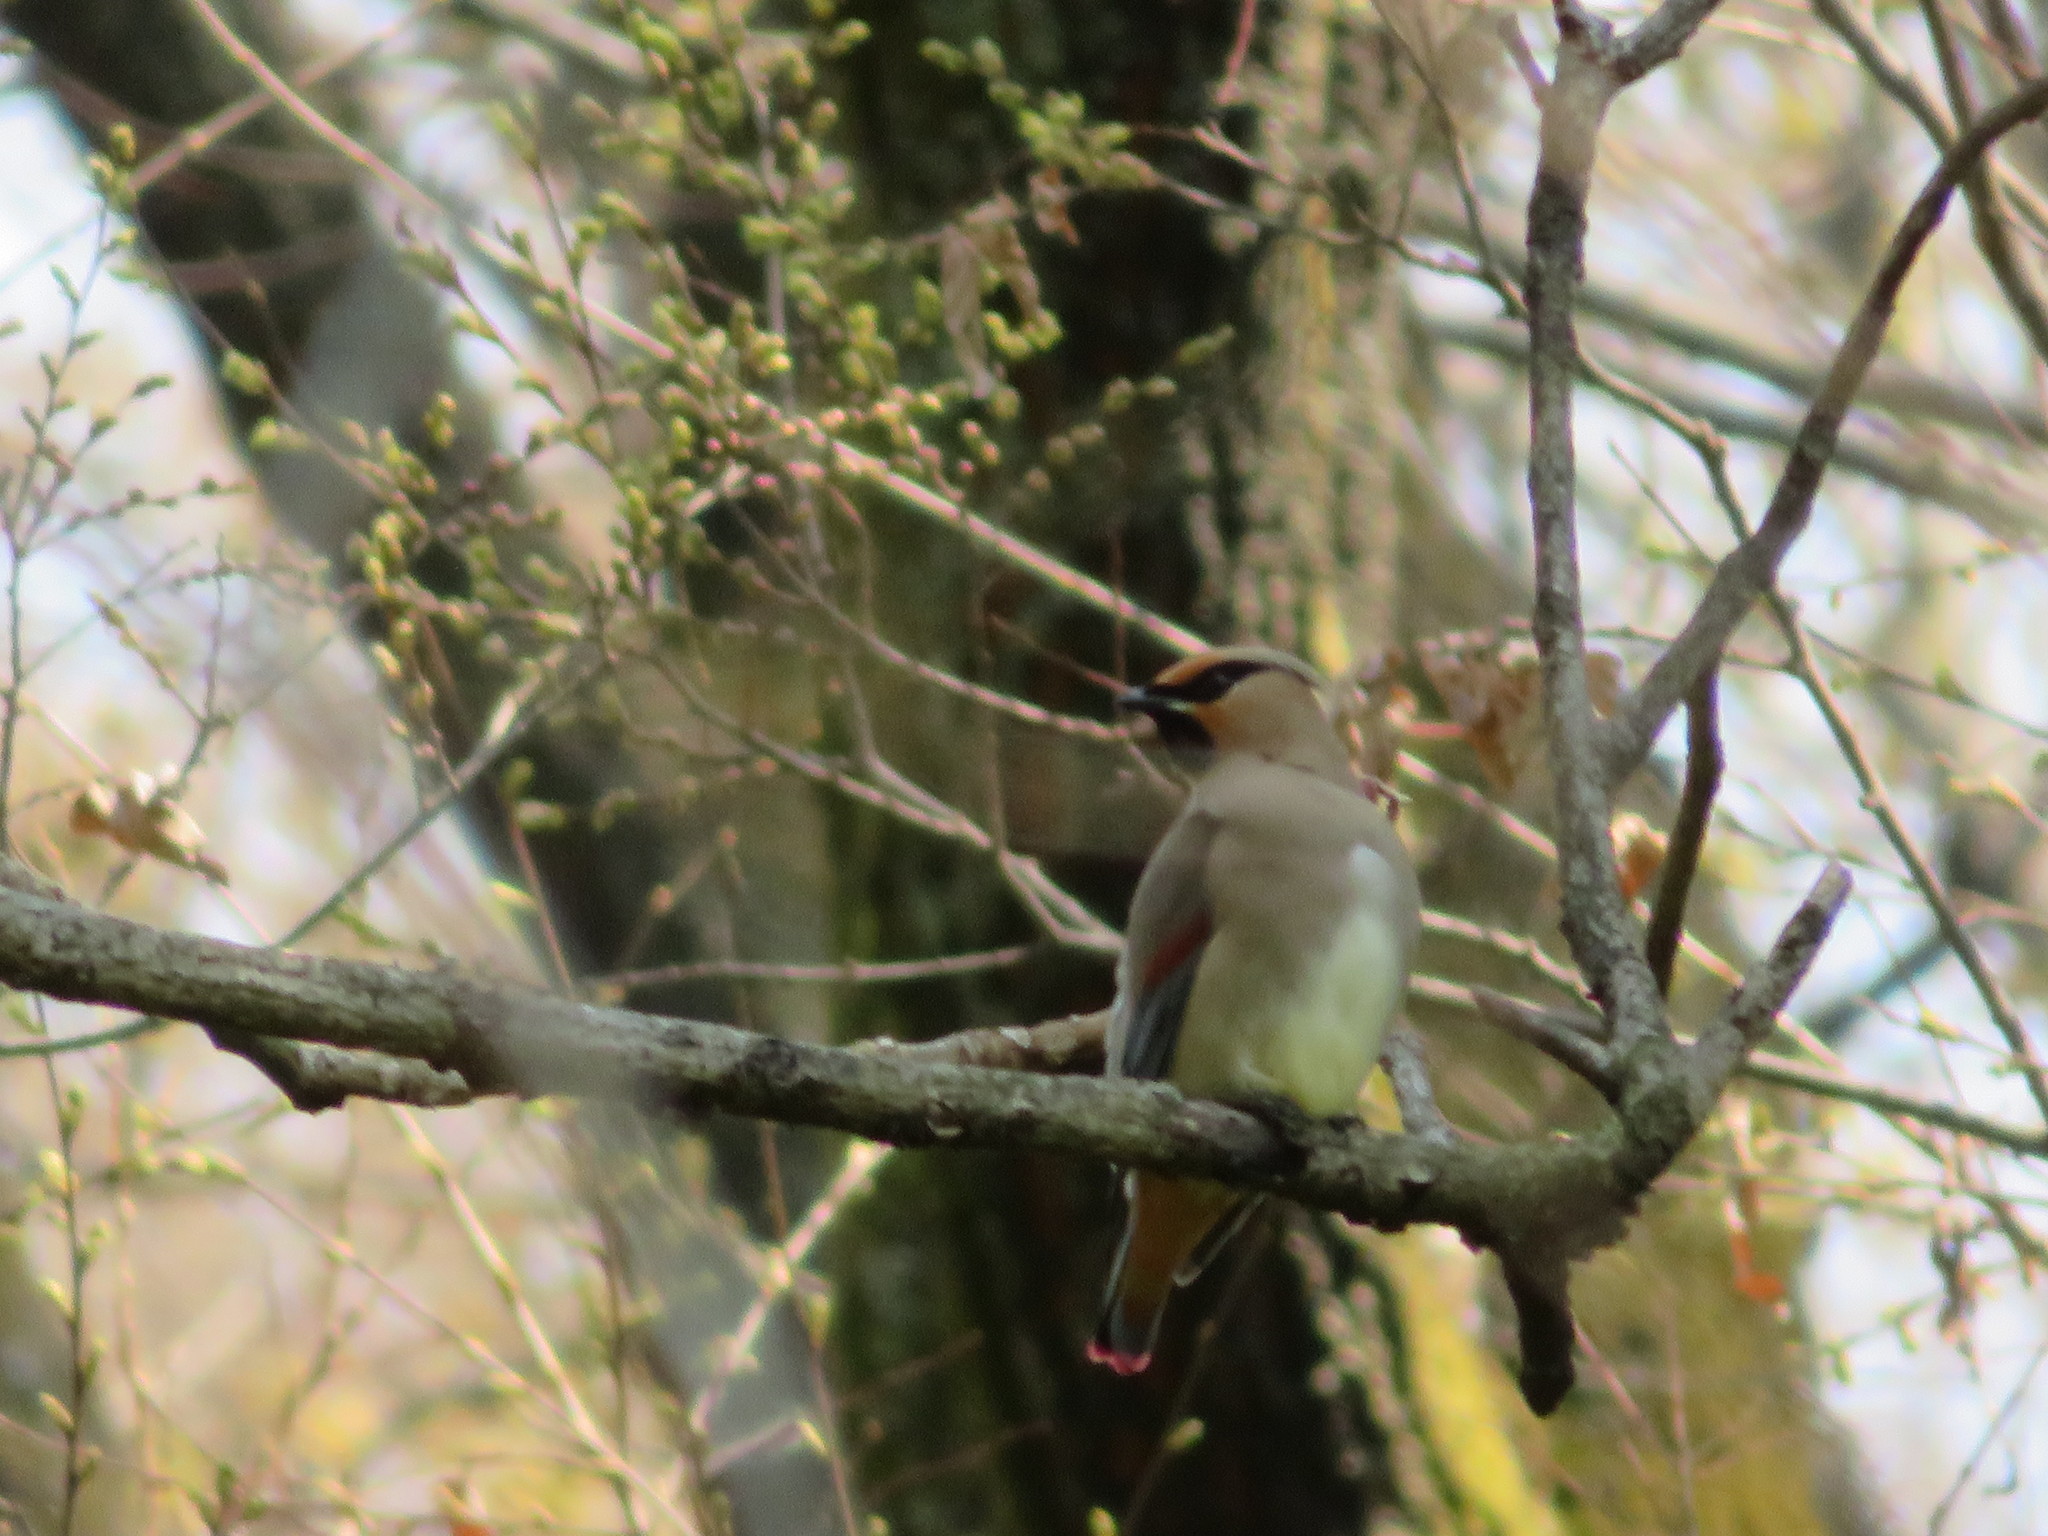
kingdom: Animalia
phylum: Chordata
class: Aves
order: Passeriformes
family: Bombycillidae
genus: Bombycilla
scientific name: Bombycilla japonica
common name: Japanese waxwing
